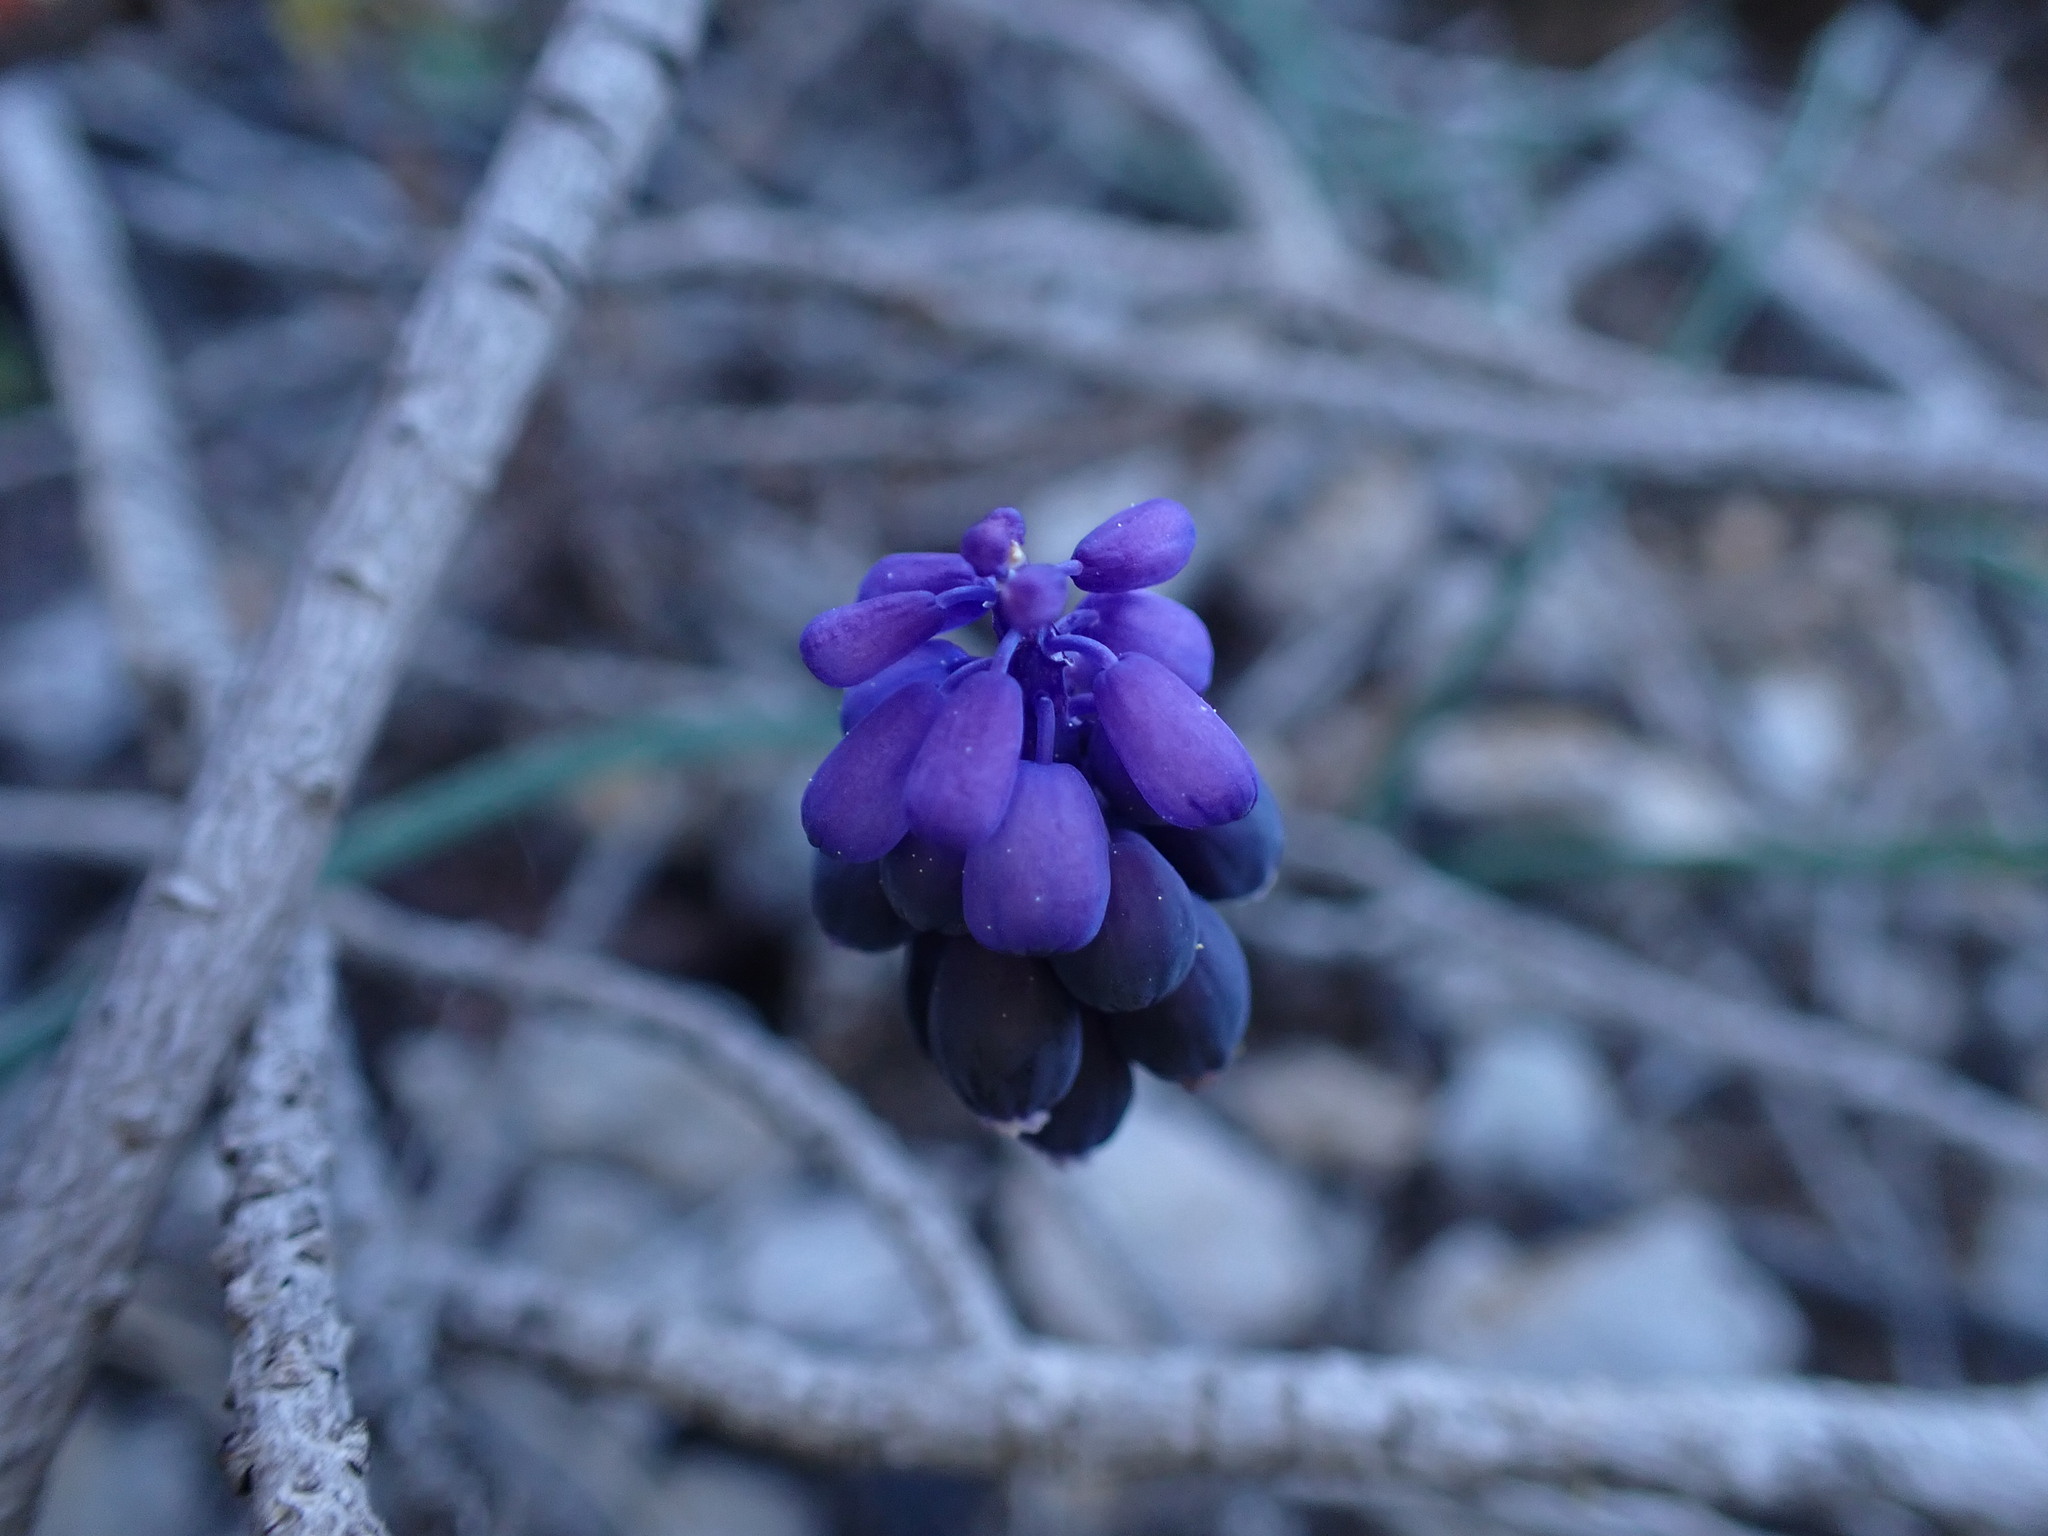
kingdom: Plantae
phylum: Tracheophyta
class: Liliopsida
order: Asparagales
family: Asparagaceae
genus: Muscari
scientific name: Muscari neglectum
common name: Grape-hyacinth
